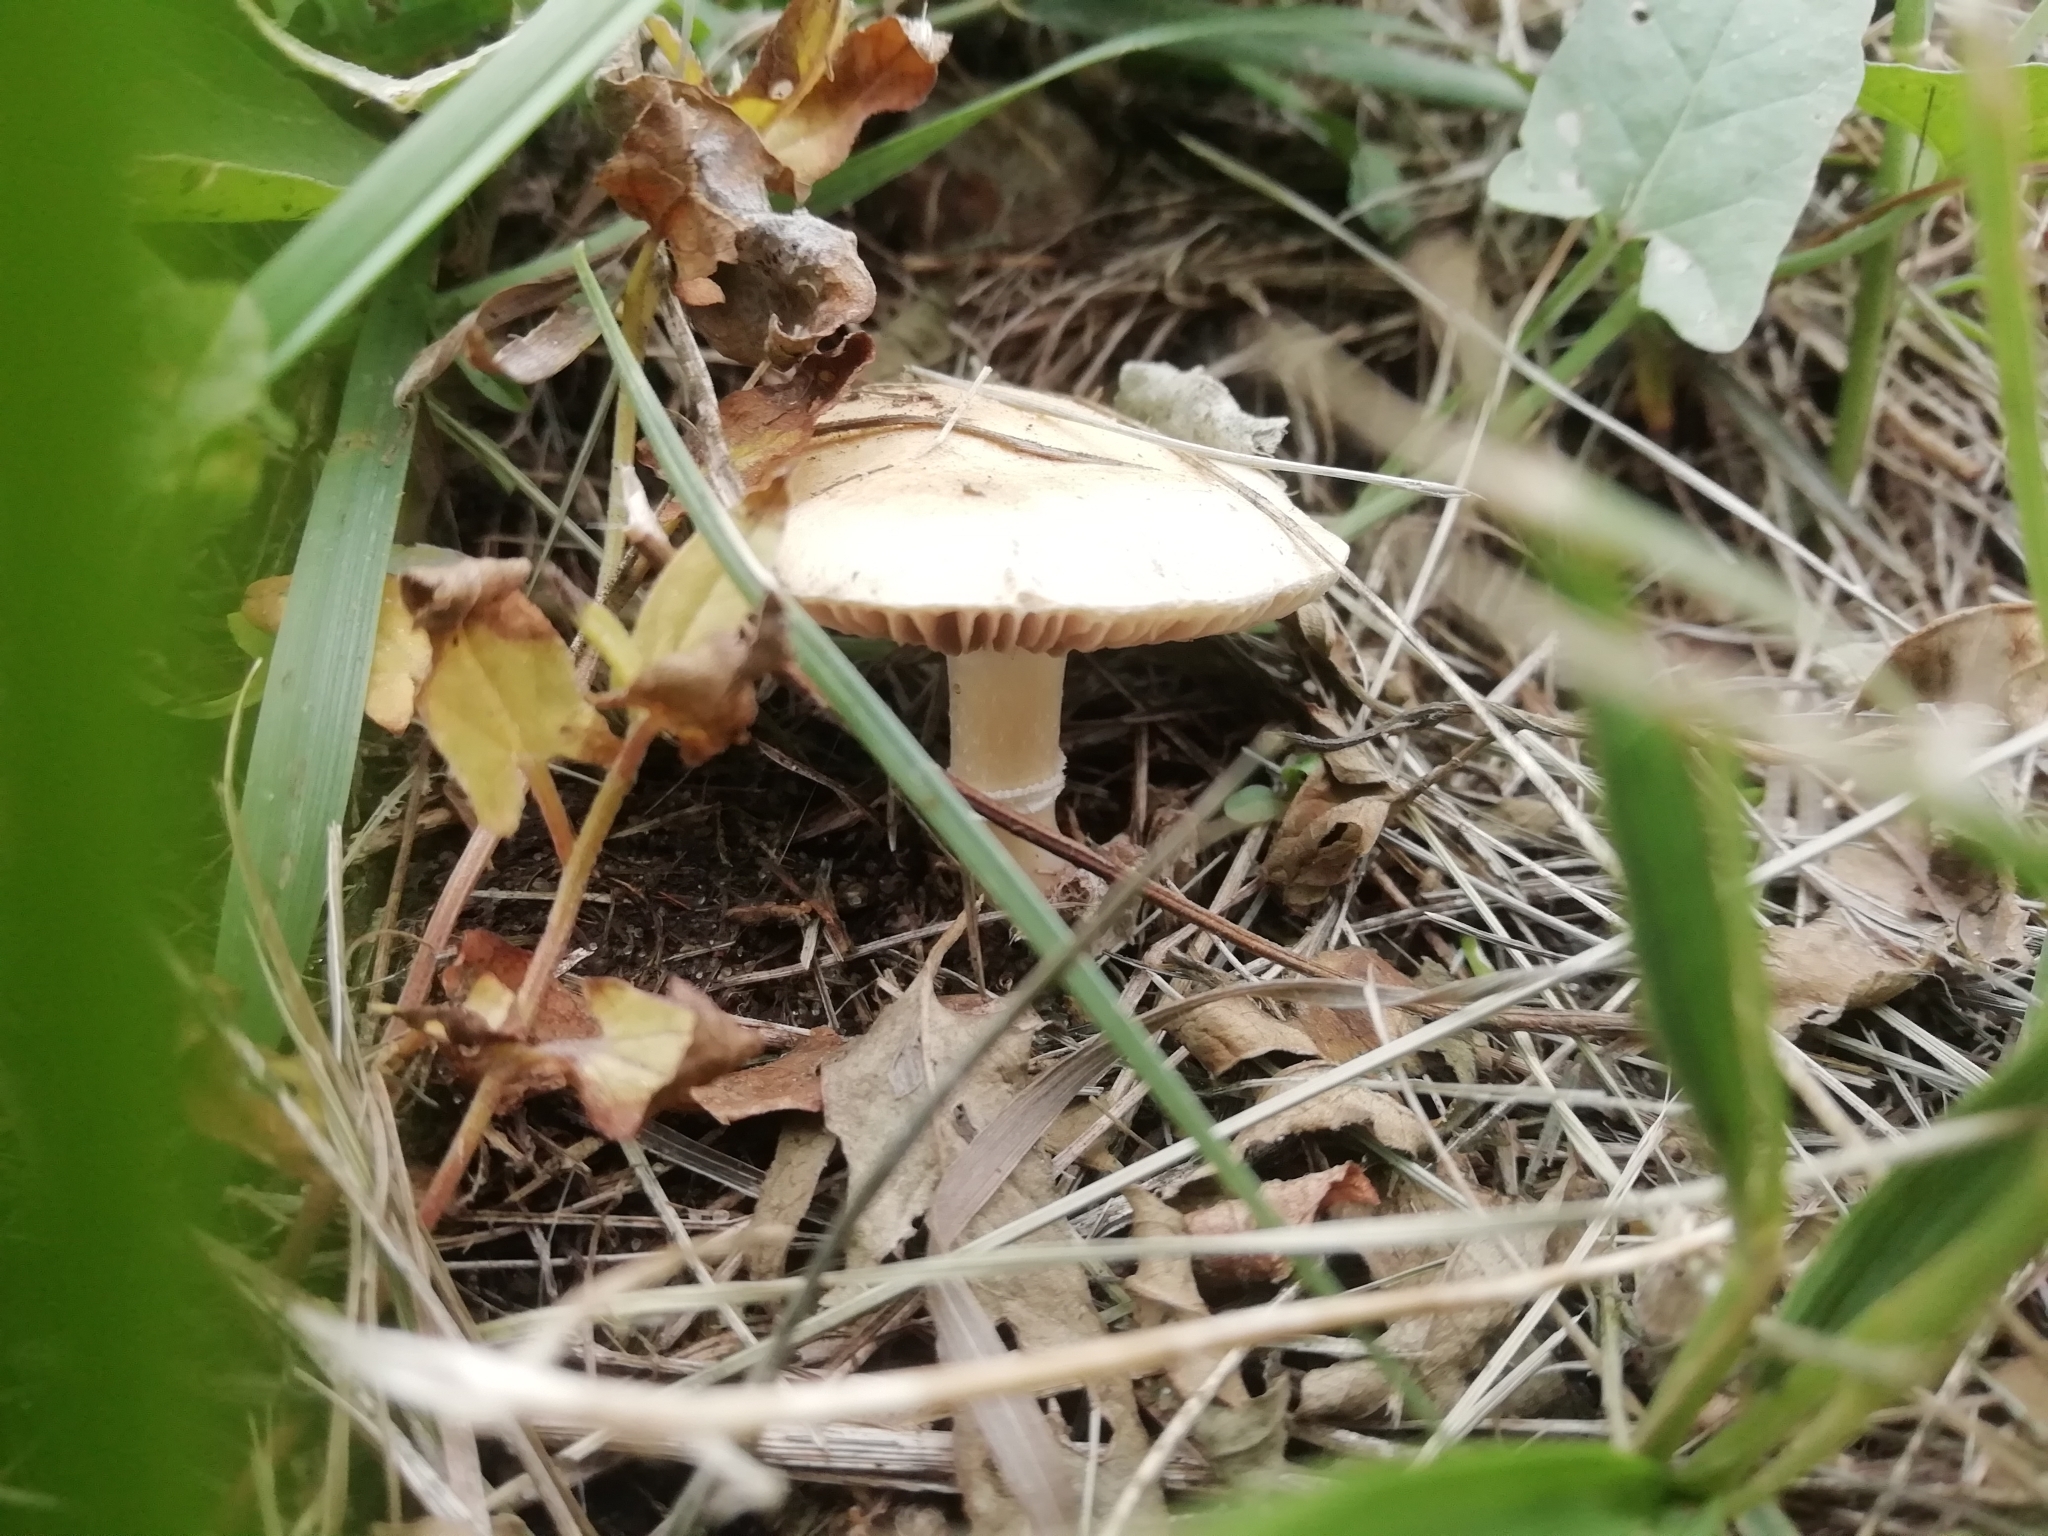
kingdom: Fungi
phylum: Basidiomycota
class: Agaricomycetes
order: Agaricales
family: Hymenogastraceae
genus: Psilocybe
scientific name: Psilocybe coronilla
